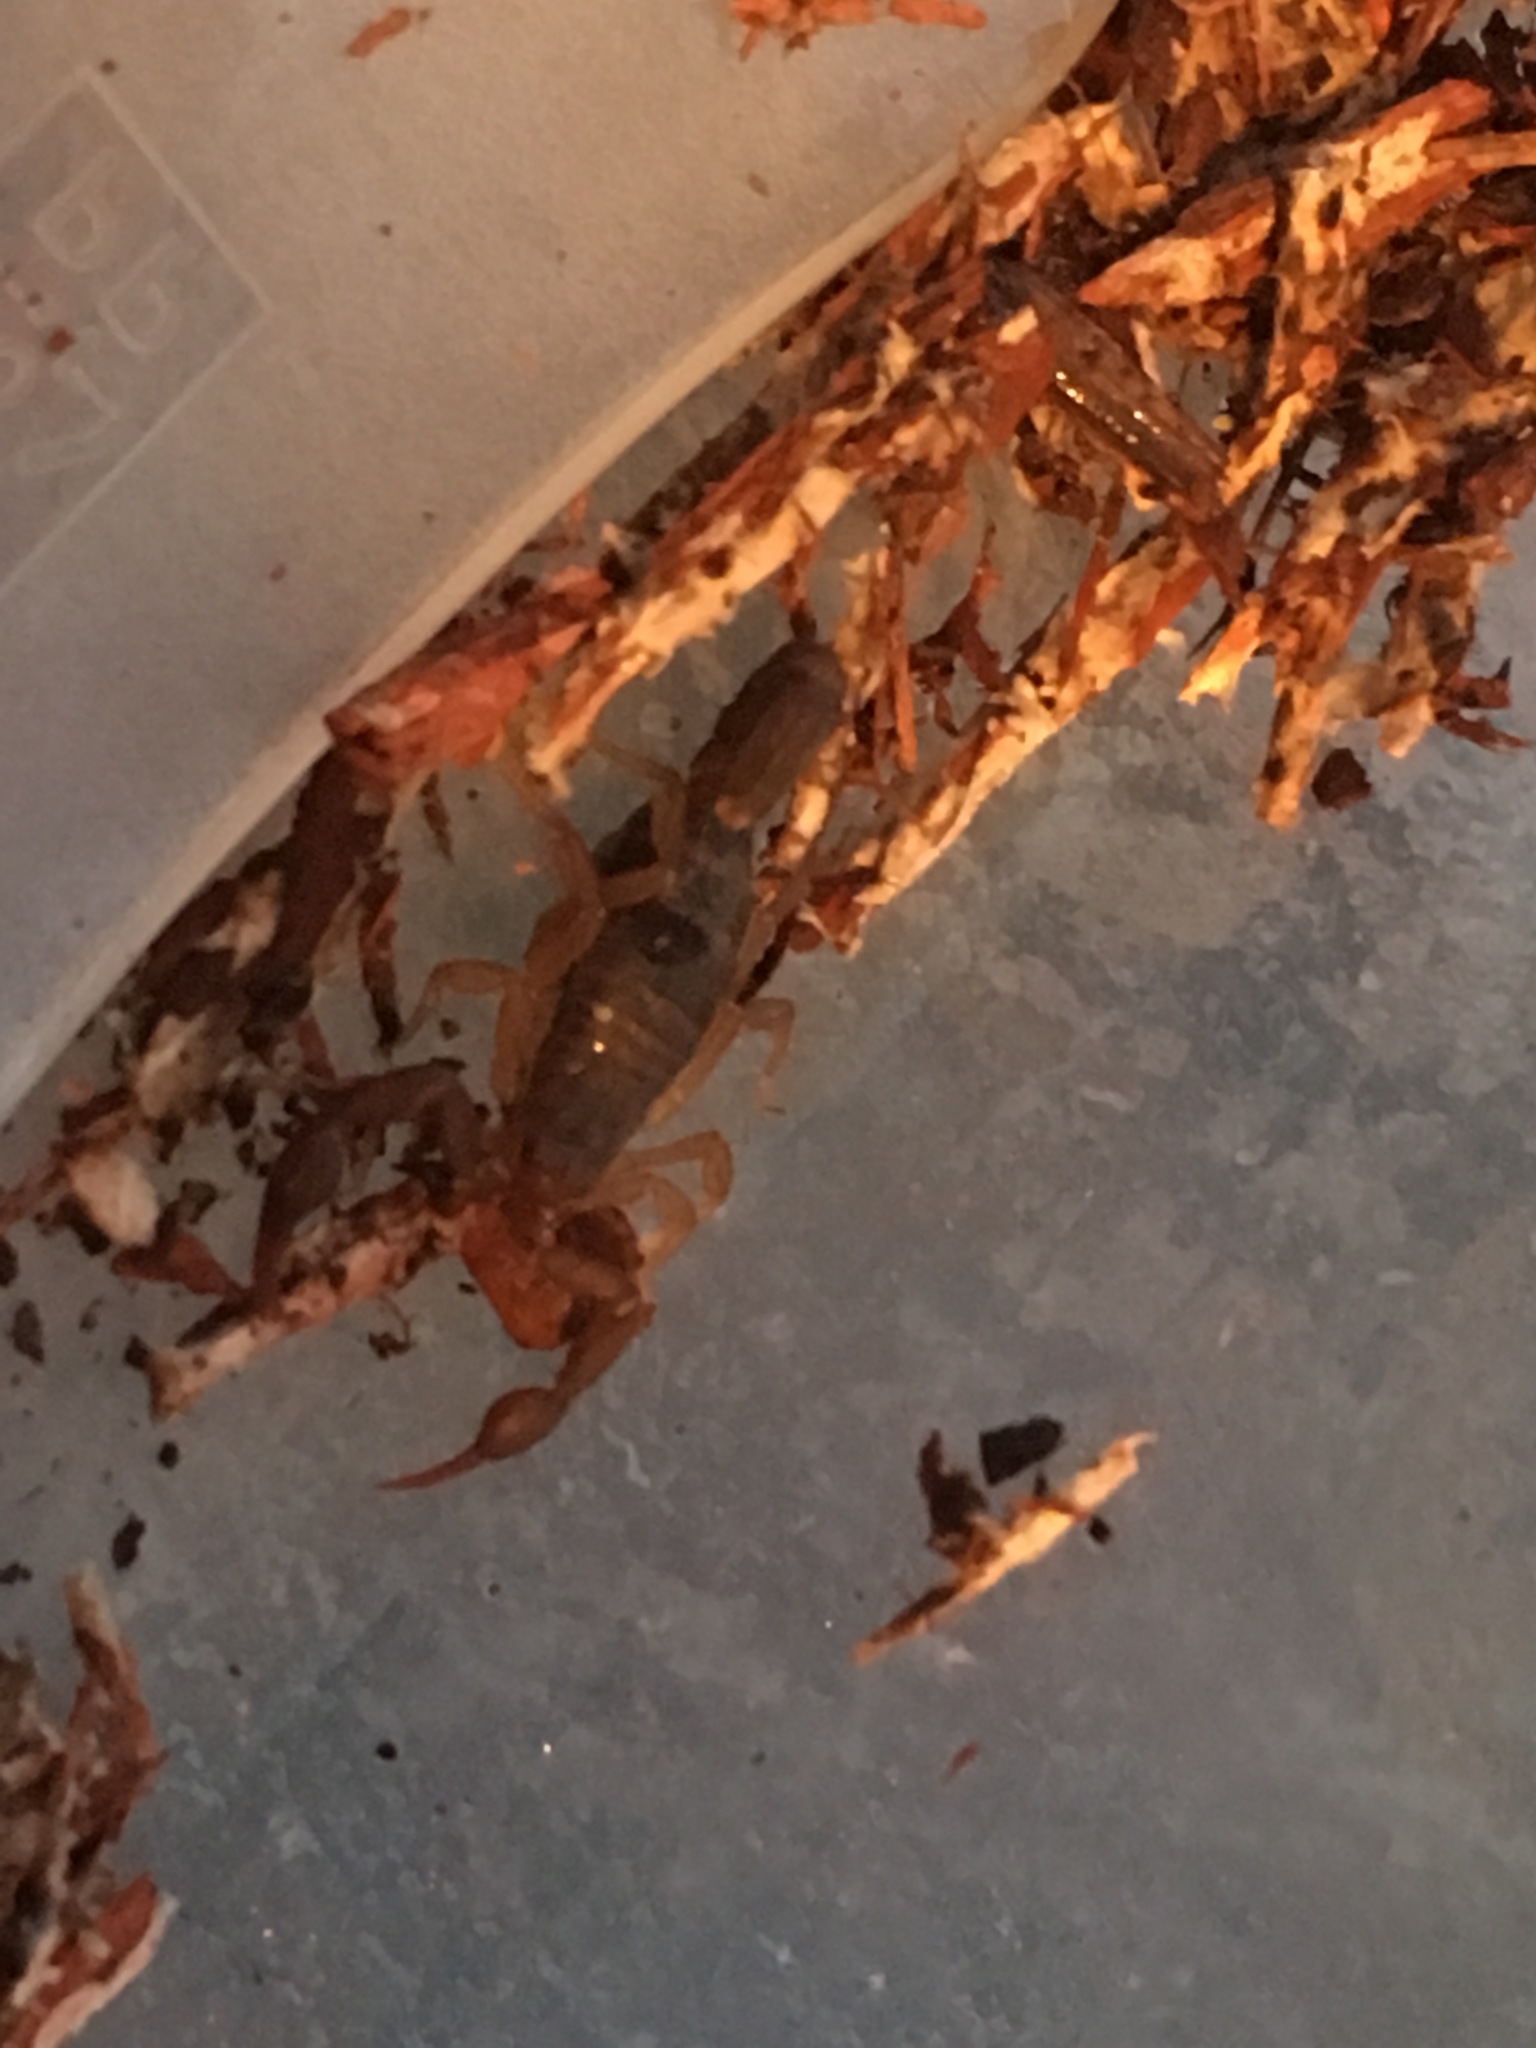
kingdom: Animalia
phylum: Arthropoda
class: Arachnida
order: Scorpiones
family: Vaejovidae
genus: Vaejovis
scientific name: Vaejovis carolinianus
